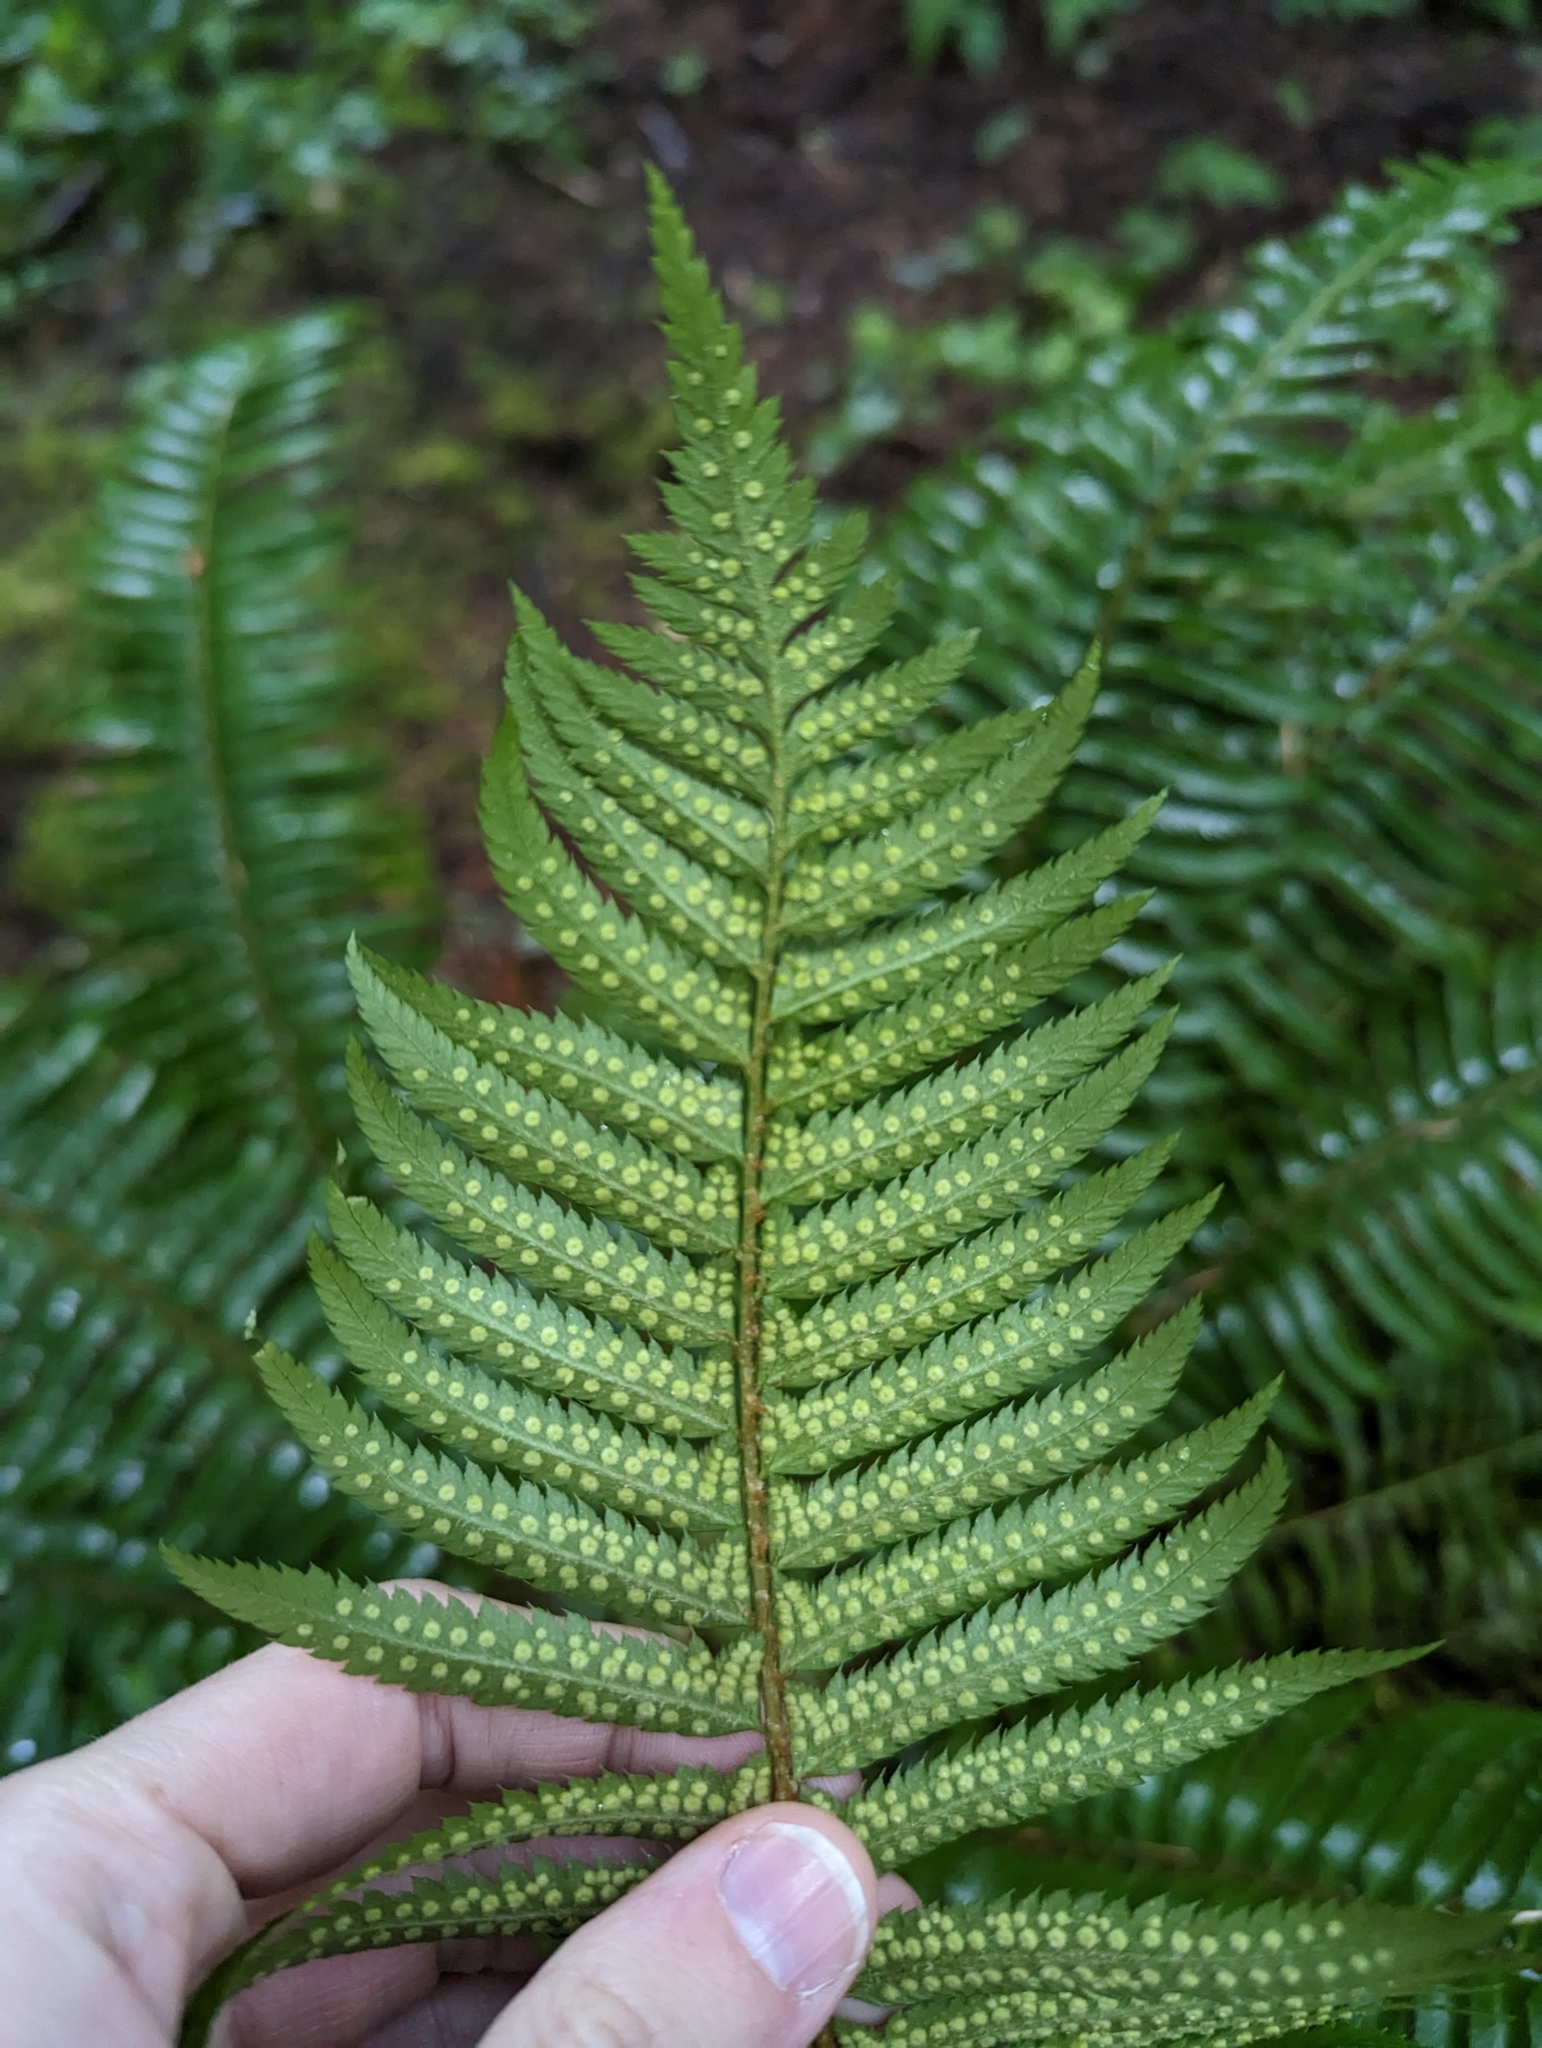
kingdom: Plantae
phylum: Tracheophyta
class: Polypodiopsida
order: Polypodiales
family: Dryopteridaceae
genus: Polystichum
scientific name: Polystichum munitum
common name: Western sword-fern
